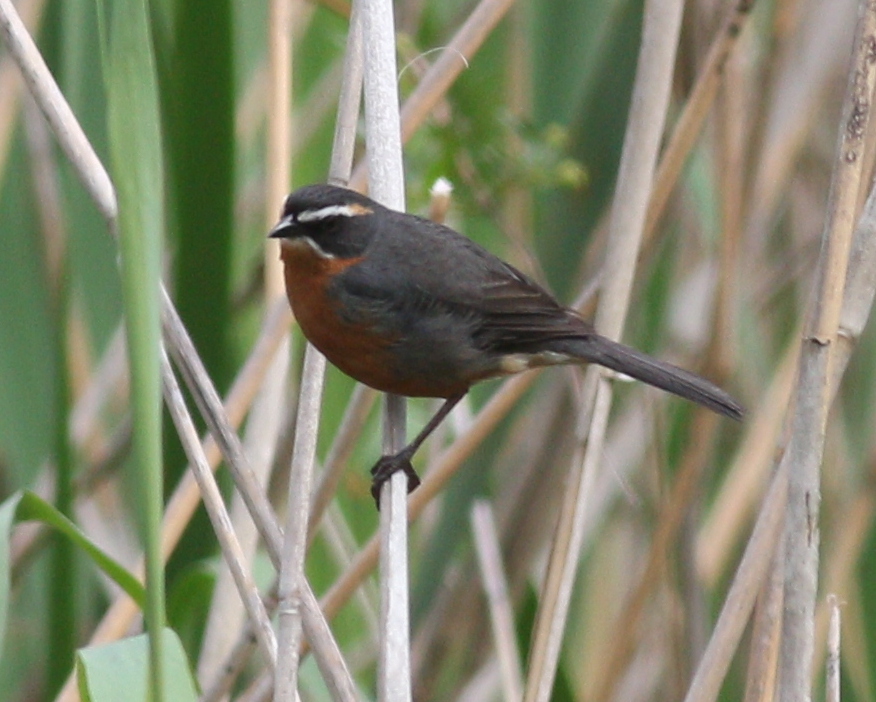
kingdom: Animalia
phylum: Chordata
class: Aves
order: Passeriformes
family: Thraupidae
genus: Poospiza
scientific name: Poospiza nigrorufa
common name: Black-and-rufous warbling finch
